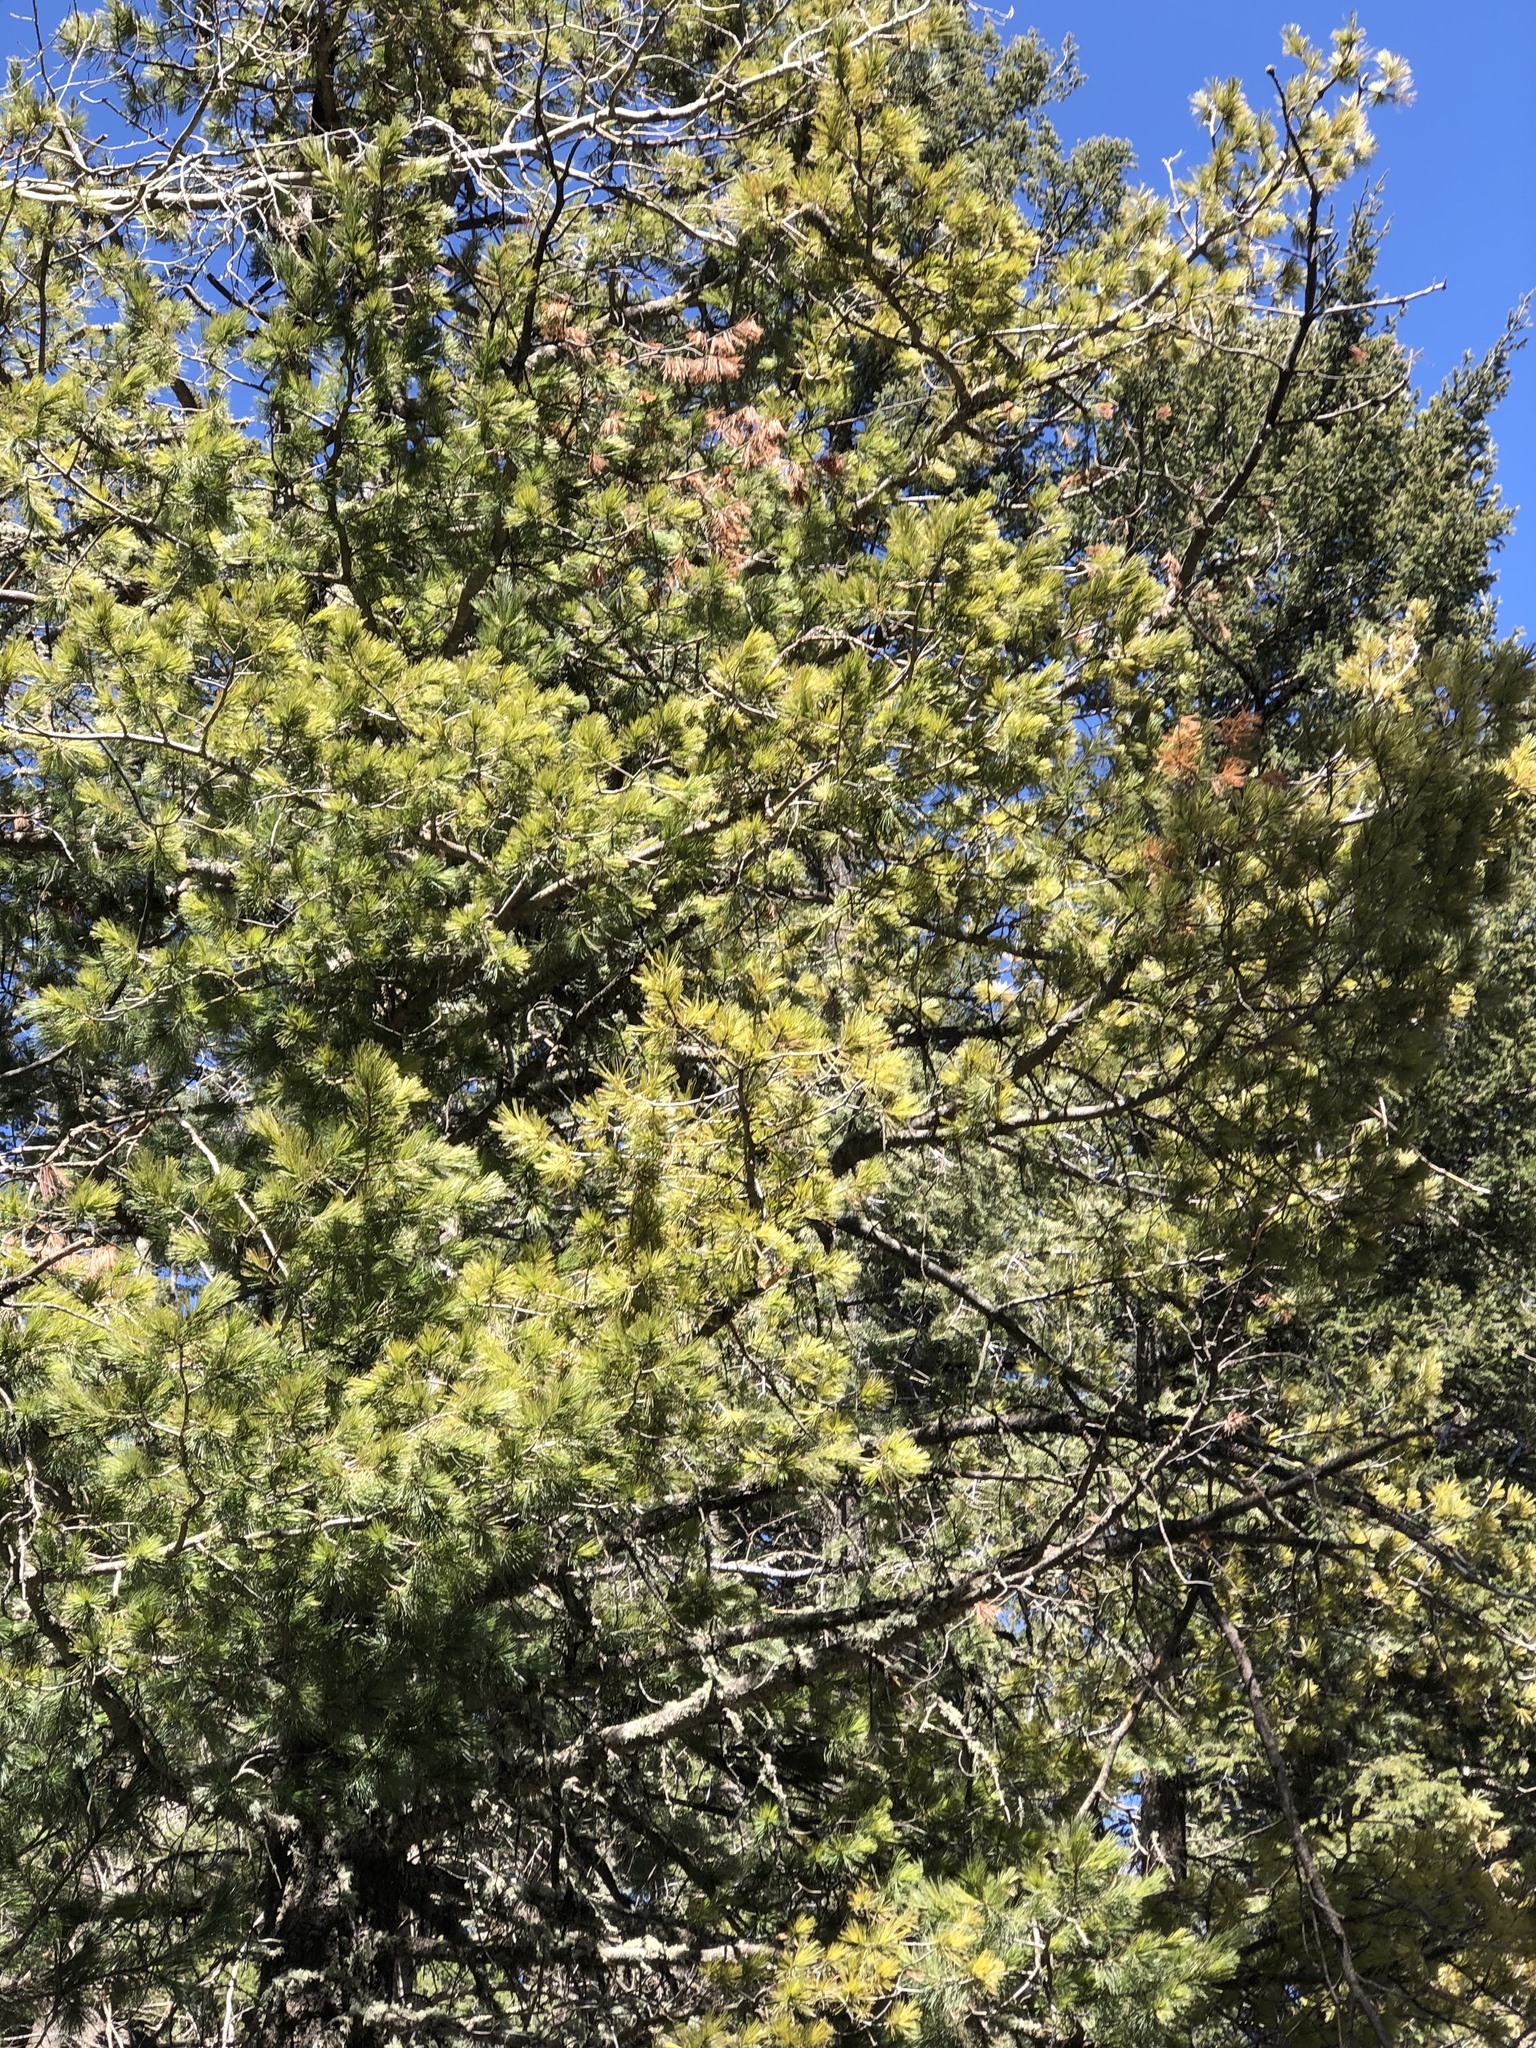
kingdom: Plantae
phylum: Tracheophyta
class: Pinopsida
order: Pinales
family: Pinaceae
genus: Pinus
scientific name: Pinus strobiformis
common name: Southwestern white pine
